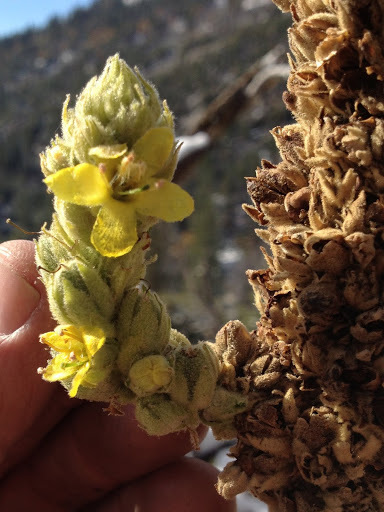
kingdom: Plantae
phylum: Tracheophyta
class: Magnoliopsida
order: Lamiales
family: Scrophulariaceae
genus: Verbascum
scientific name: Verbascum thapsus
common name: Common mullein
